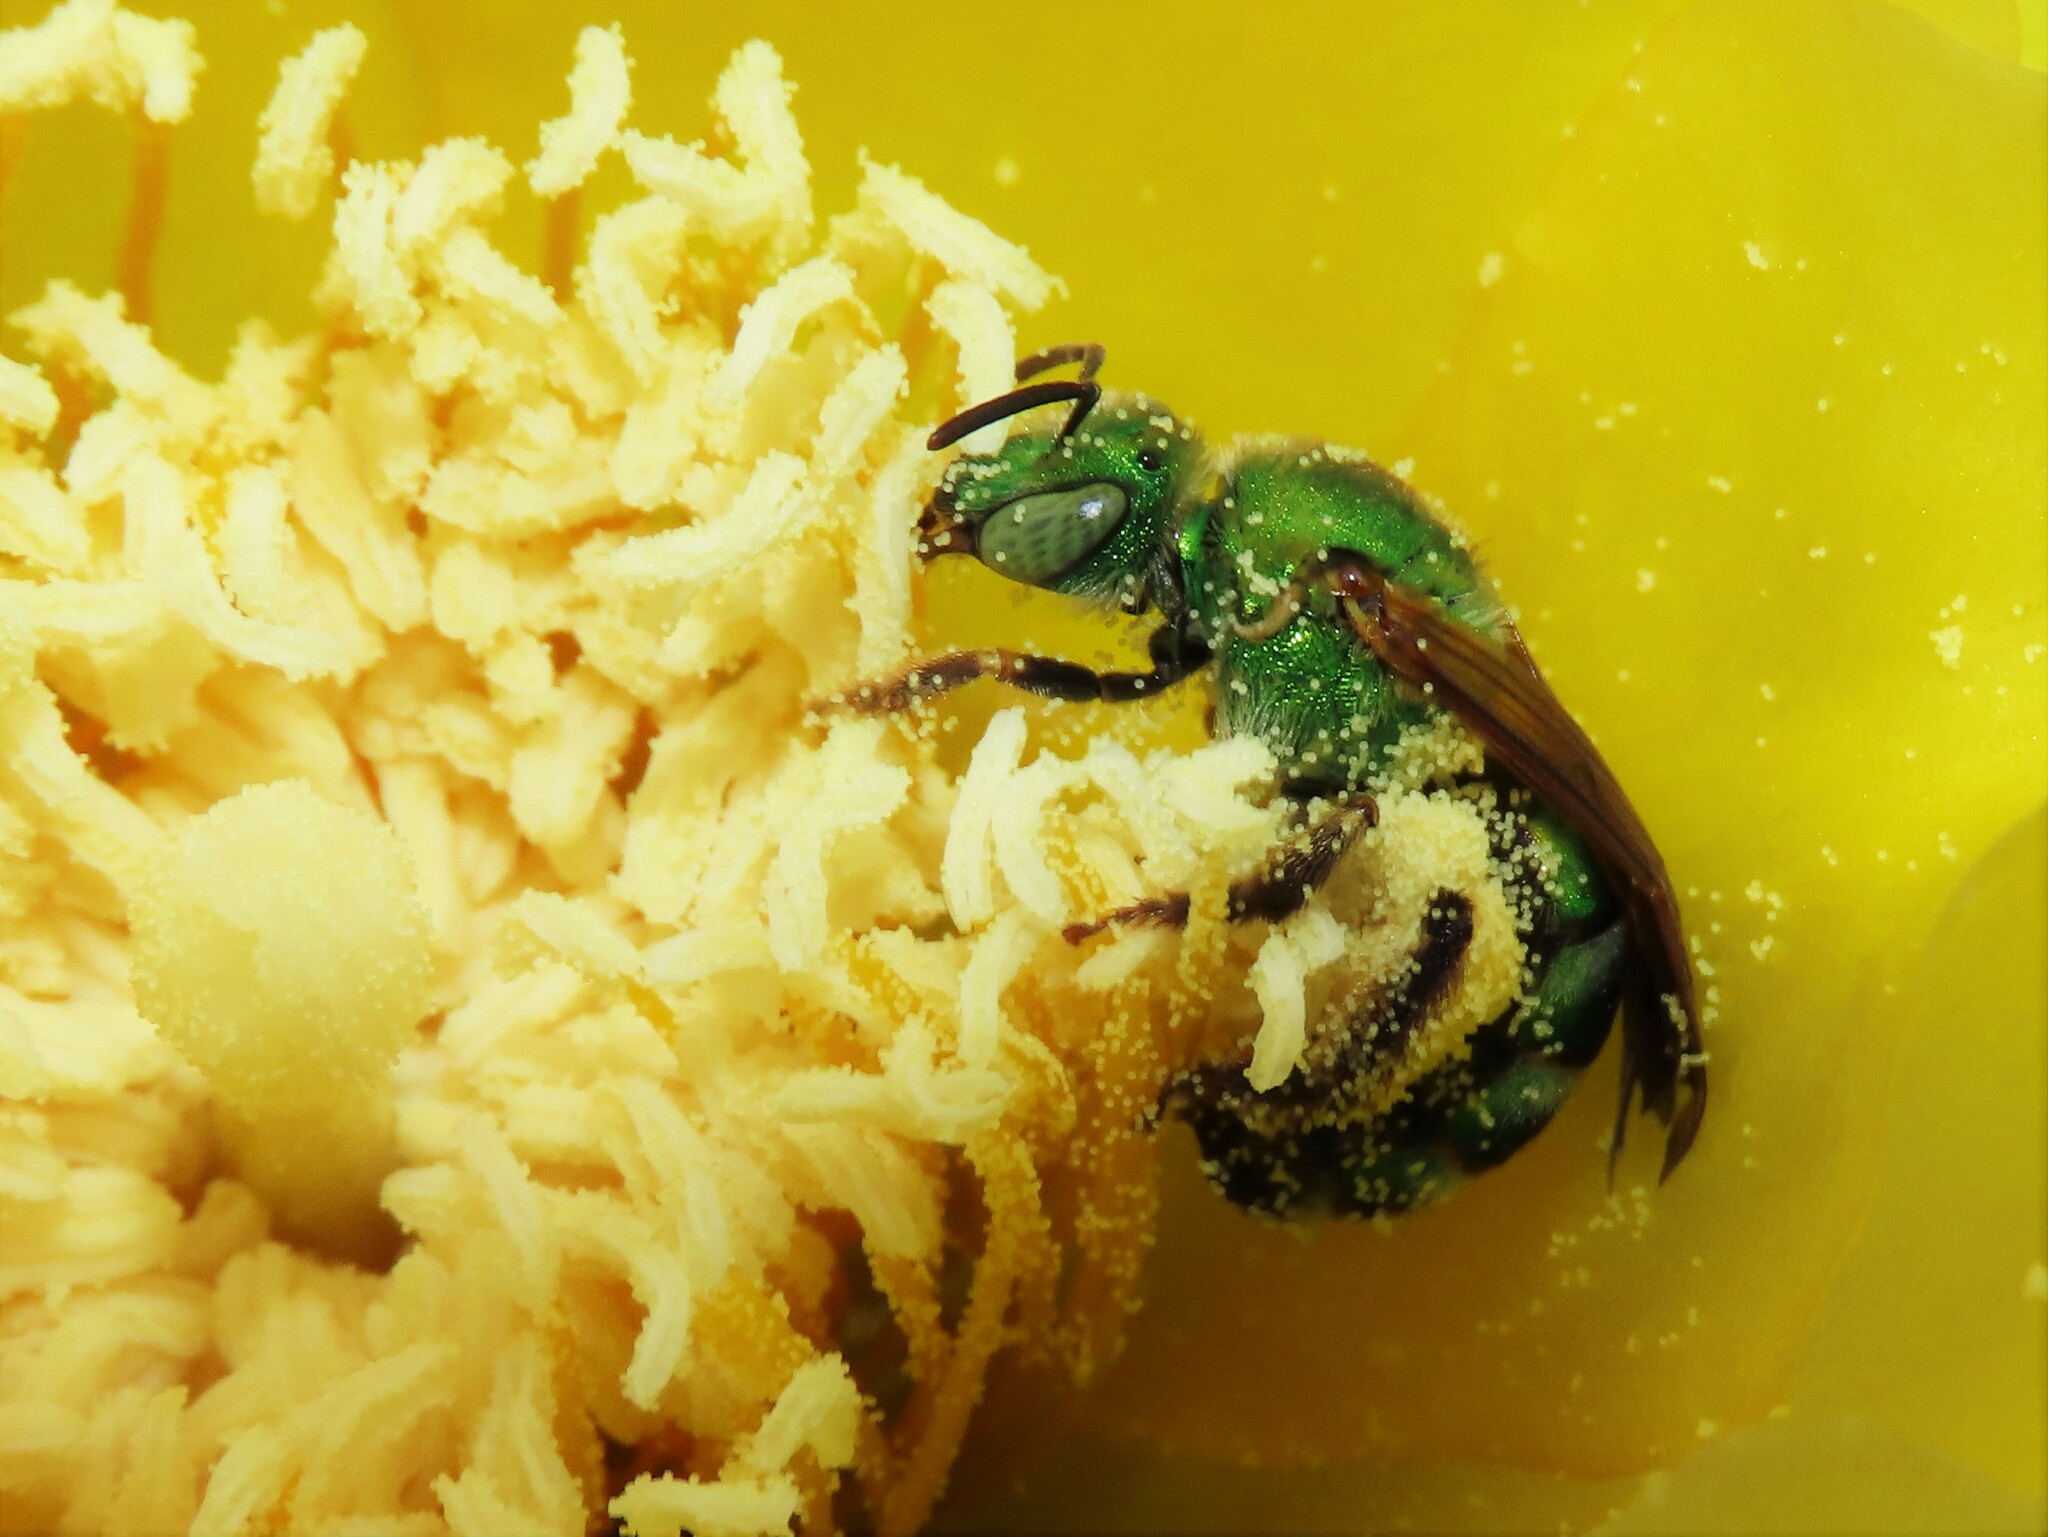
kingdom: Animalia
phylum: Arthropoda
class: Insecta
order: Hymenoptera
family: Halictidae
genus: Agapostemon
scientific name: Agapostemon splendens
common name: Brown-winged striped sweat bee
